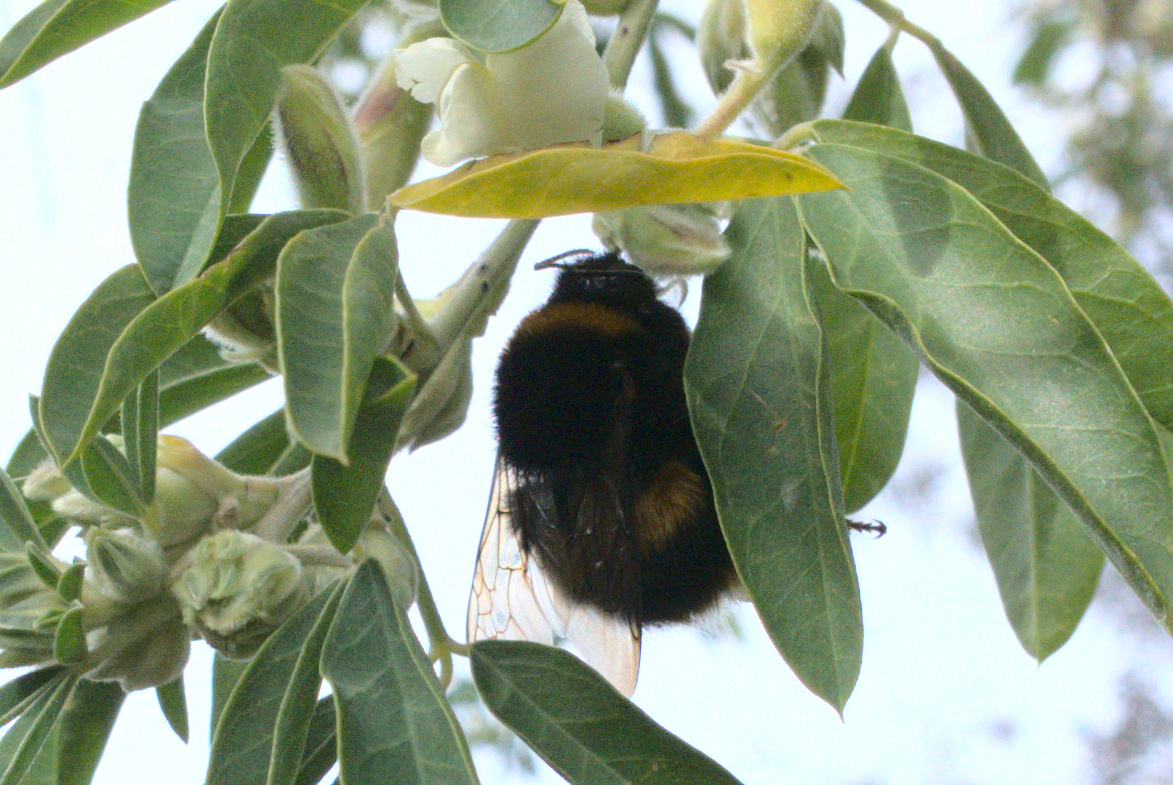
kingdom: Animalia
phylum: Arthropoda
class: Insecta
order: Hymenoptera
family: Apidae
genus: Bombus
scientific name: Bombus terrestris
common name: Buff-tailed bumblebee
